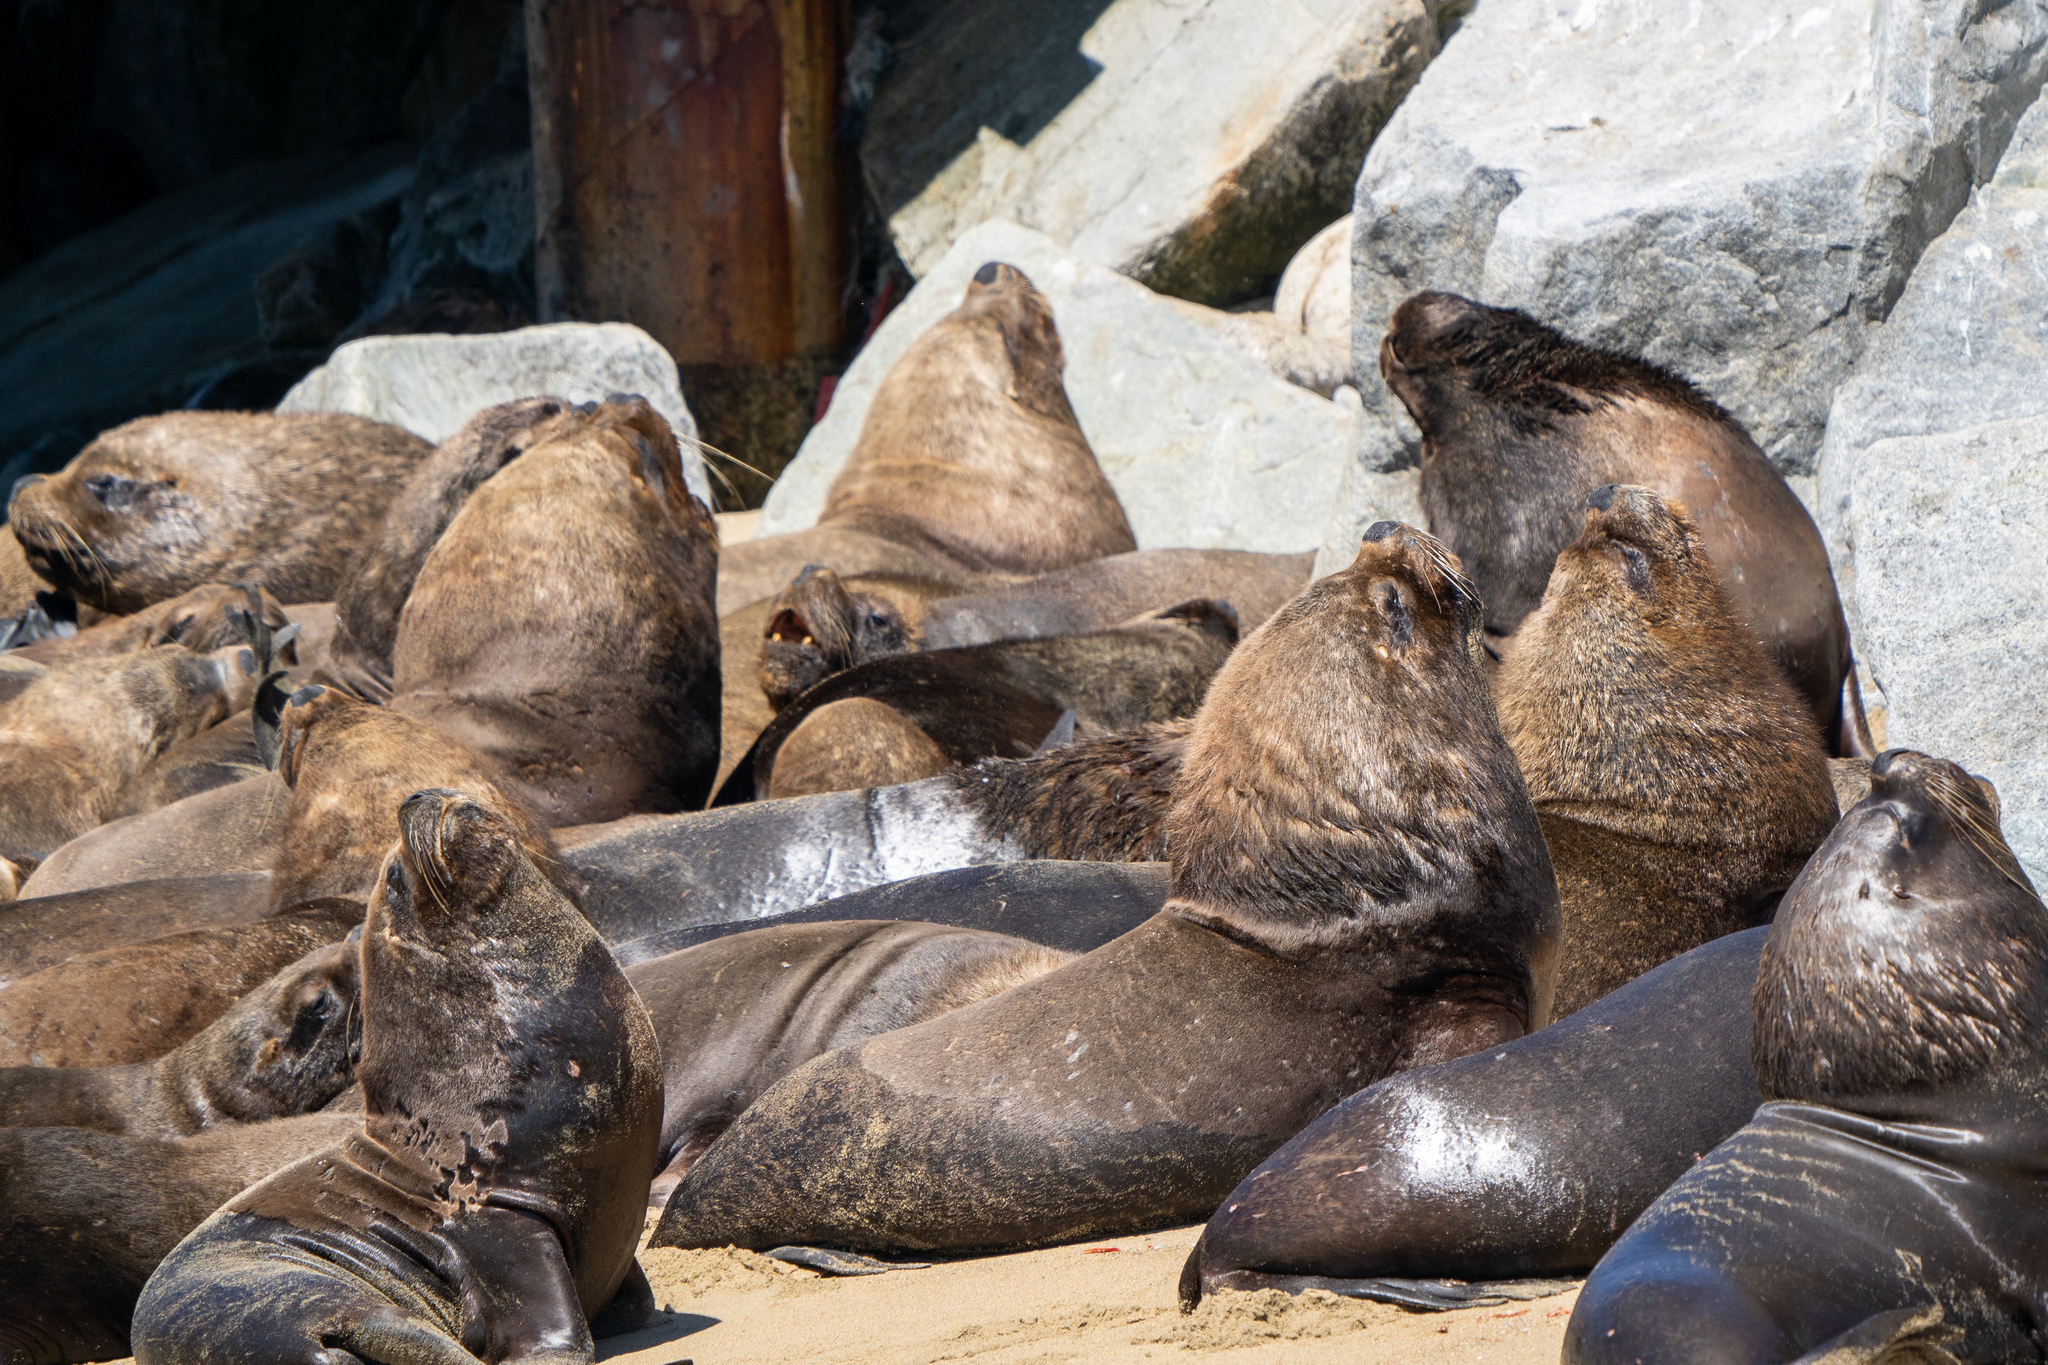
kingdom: Animalia
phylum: Chordata
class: Mammalia
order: Carnivora
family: Otariidae
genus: Otaria
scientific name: Otaria byronia
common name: South american sea lion
